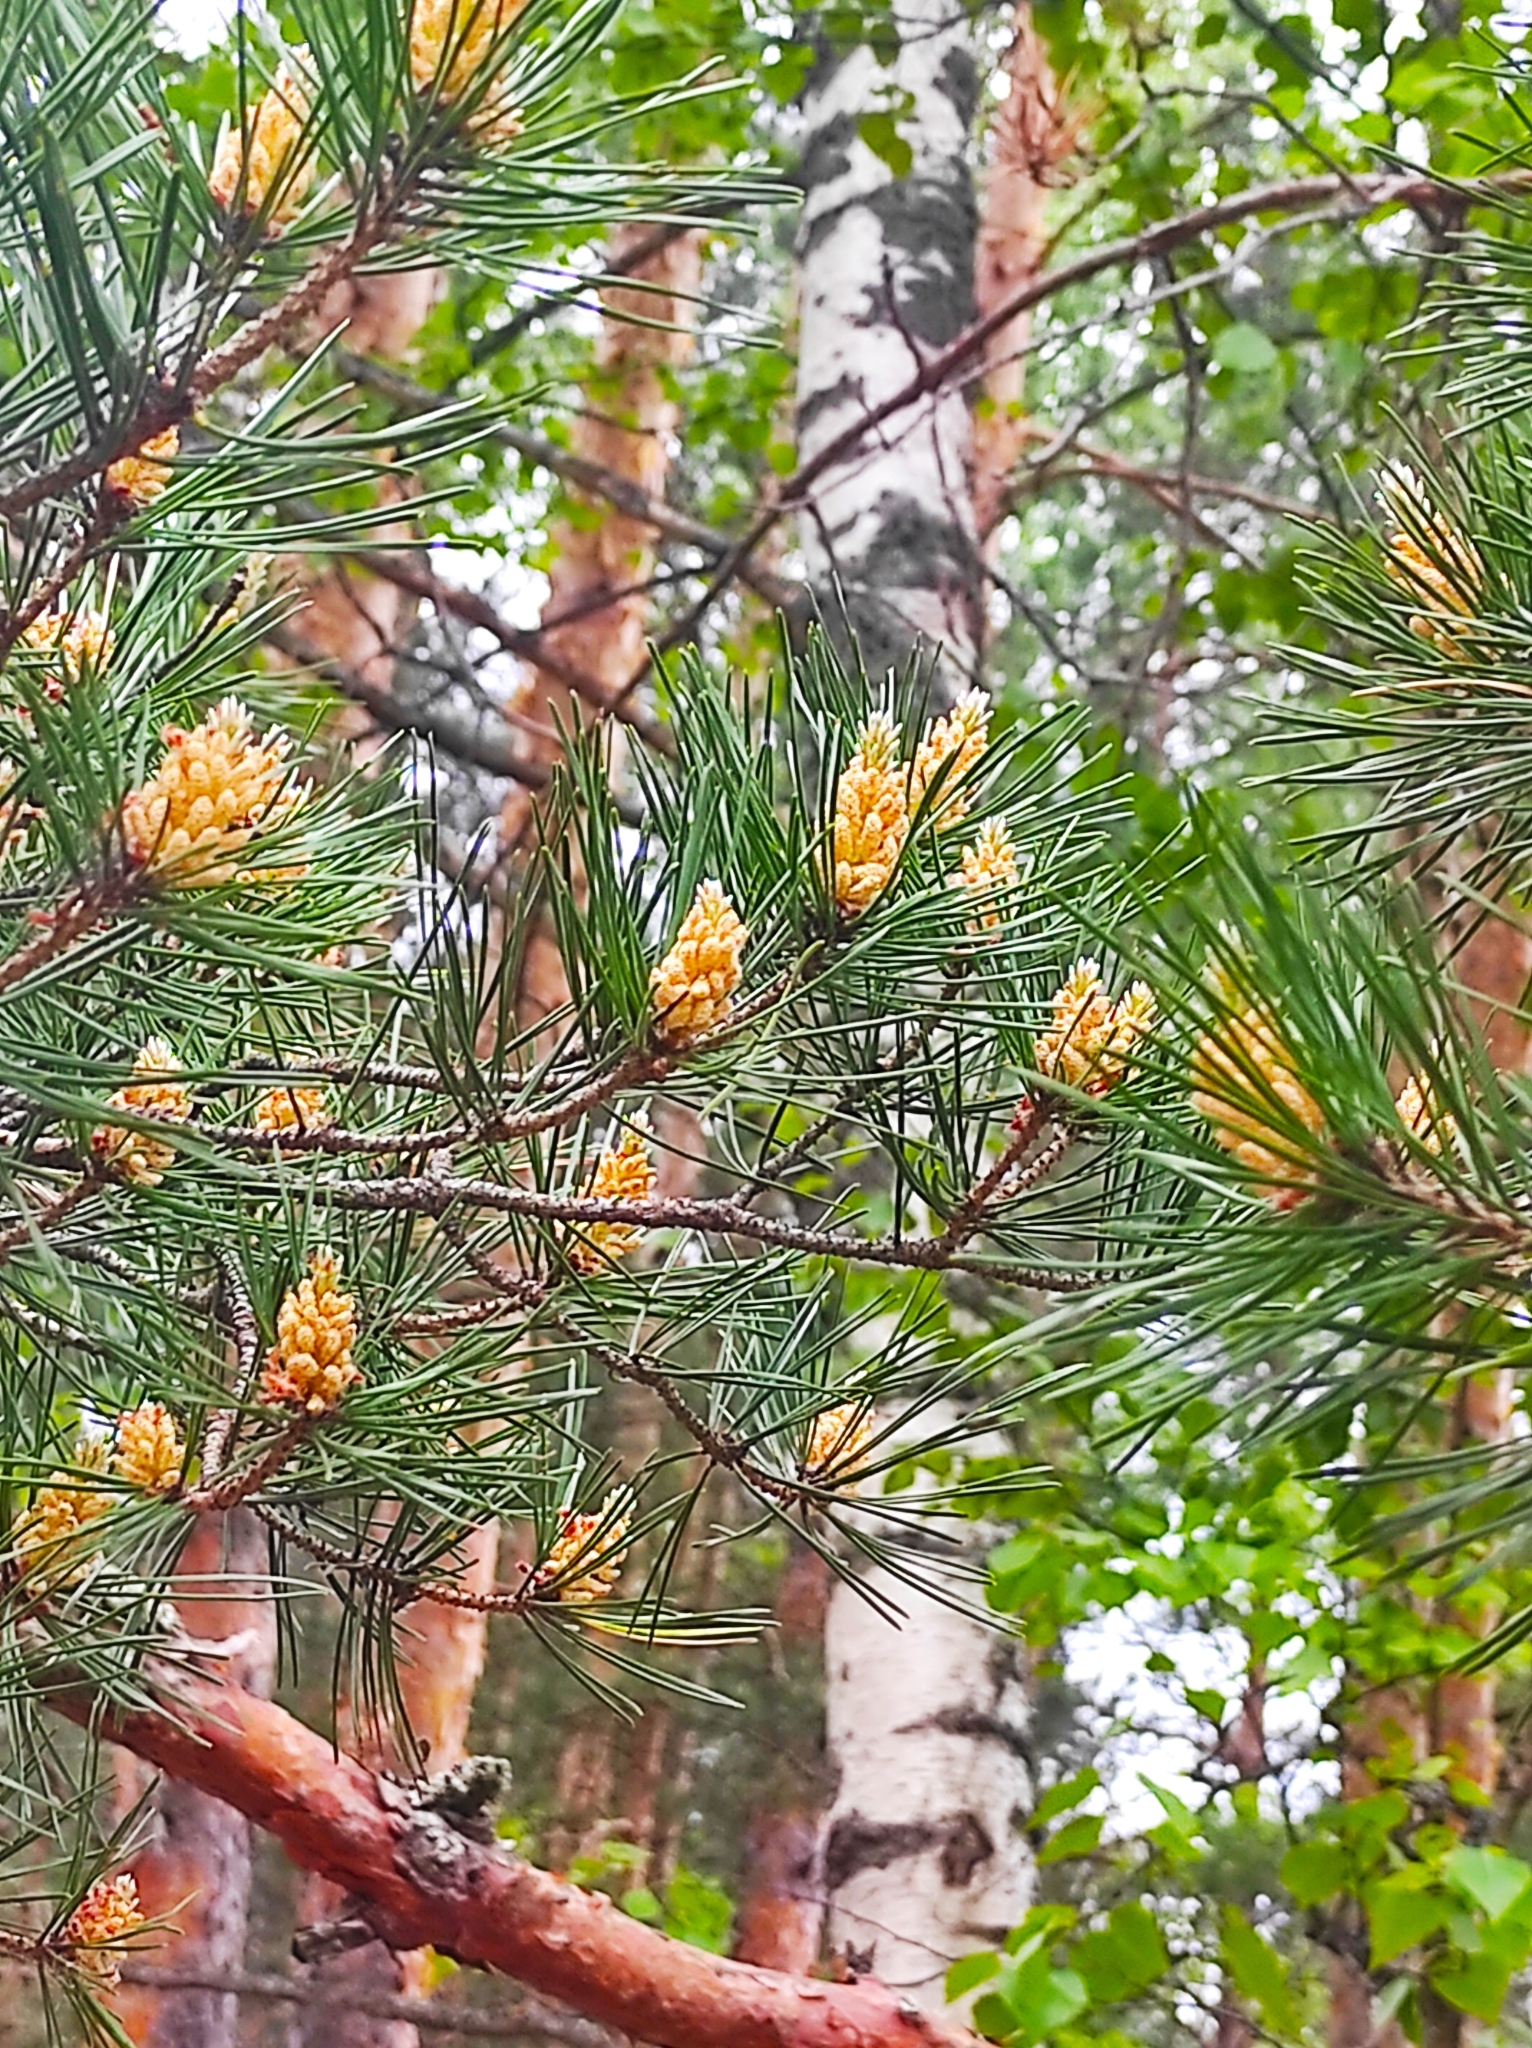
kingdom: Plantae
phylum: Tracheophyta
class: Pinopsida
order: Pinales
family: Pinaceae
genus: Pinus
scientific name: Pinus sylvestris
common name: Scots pine
